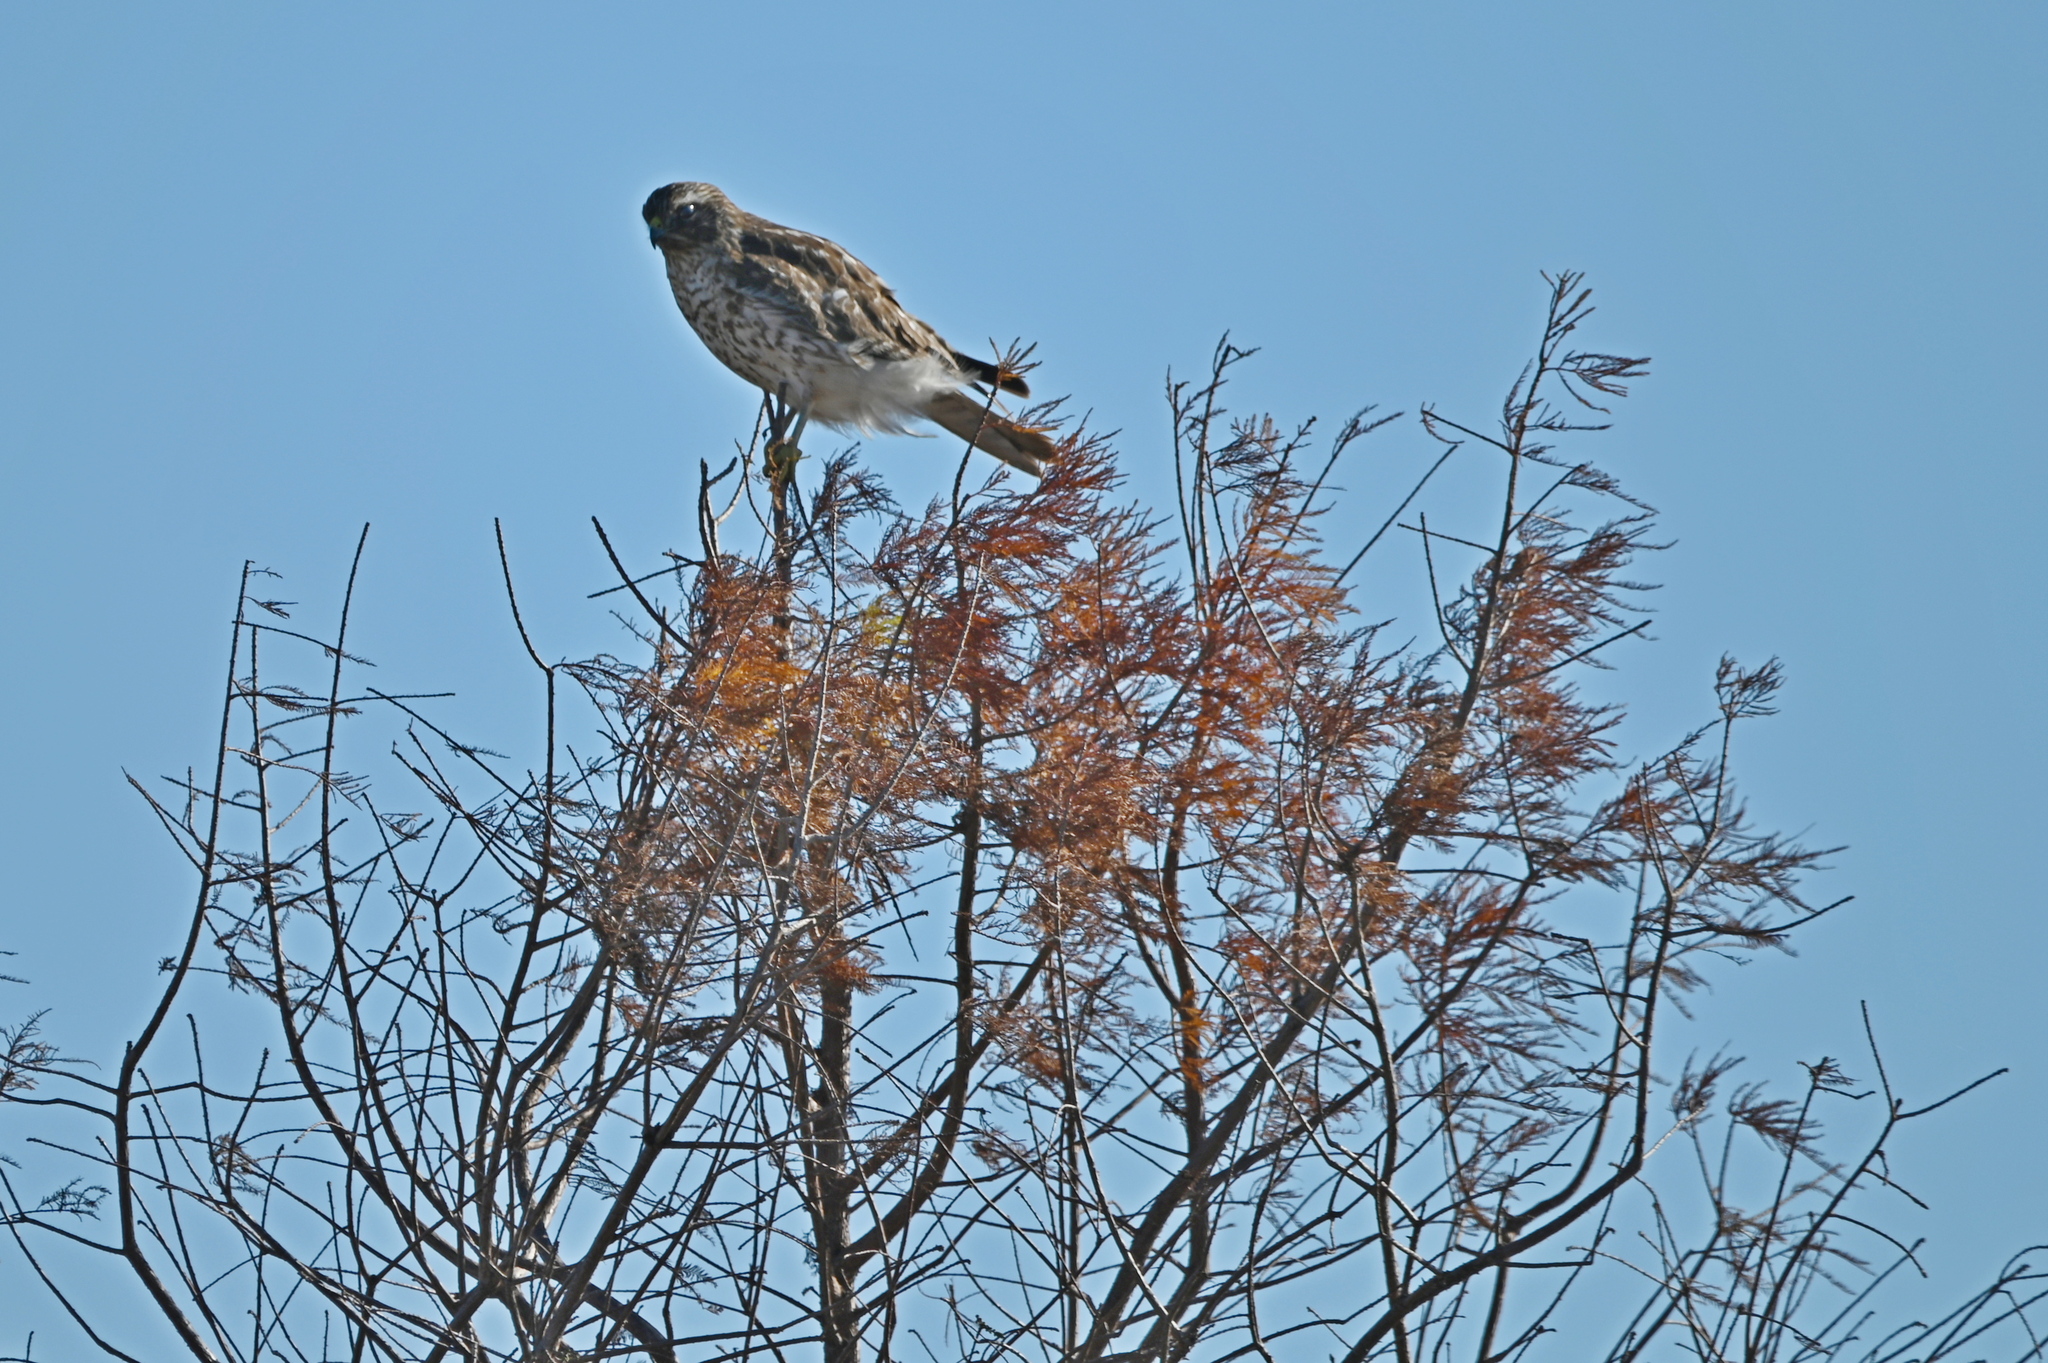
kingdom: Animalia
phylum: Chordata
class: Aves
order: Accipitriformes
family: Accipitridae
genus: Buteo
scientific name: Buteo lineatus
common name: Red-shouldered hawk
